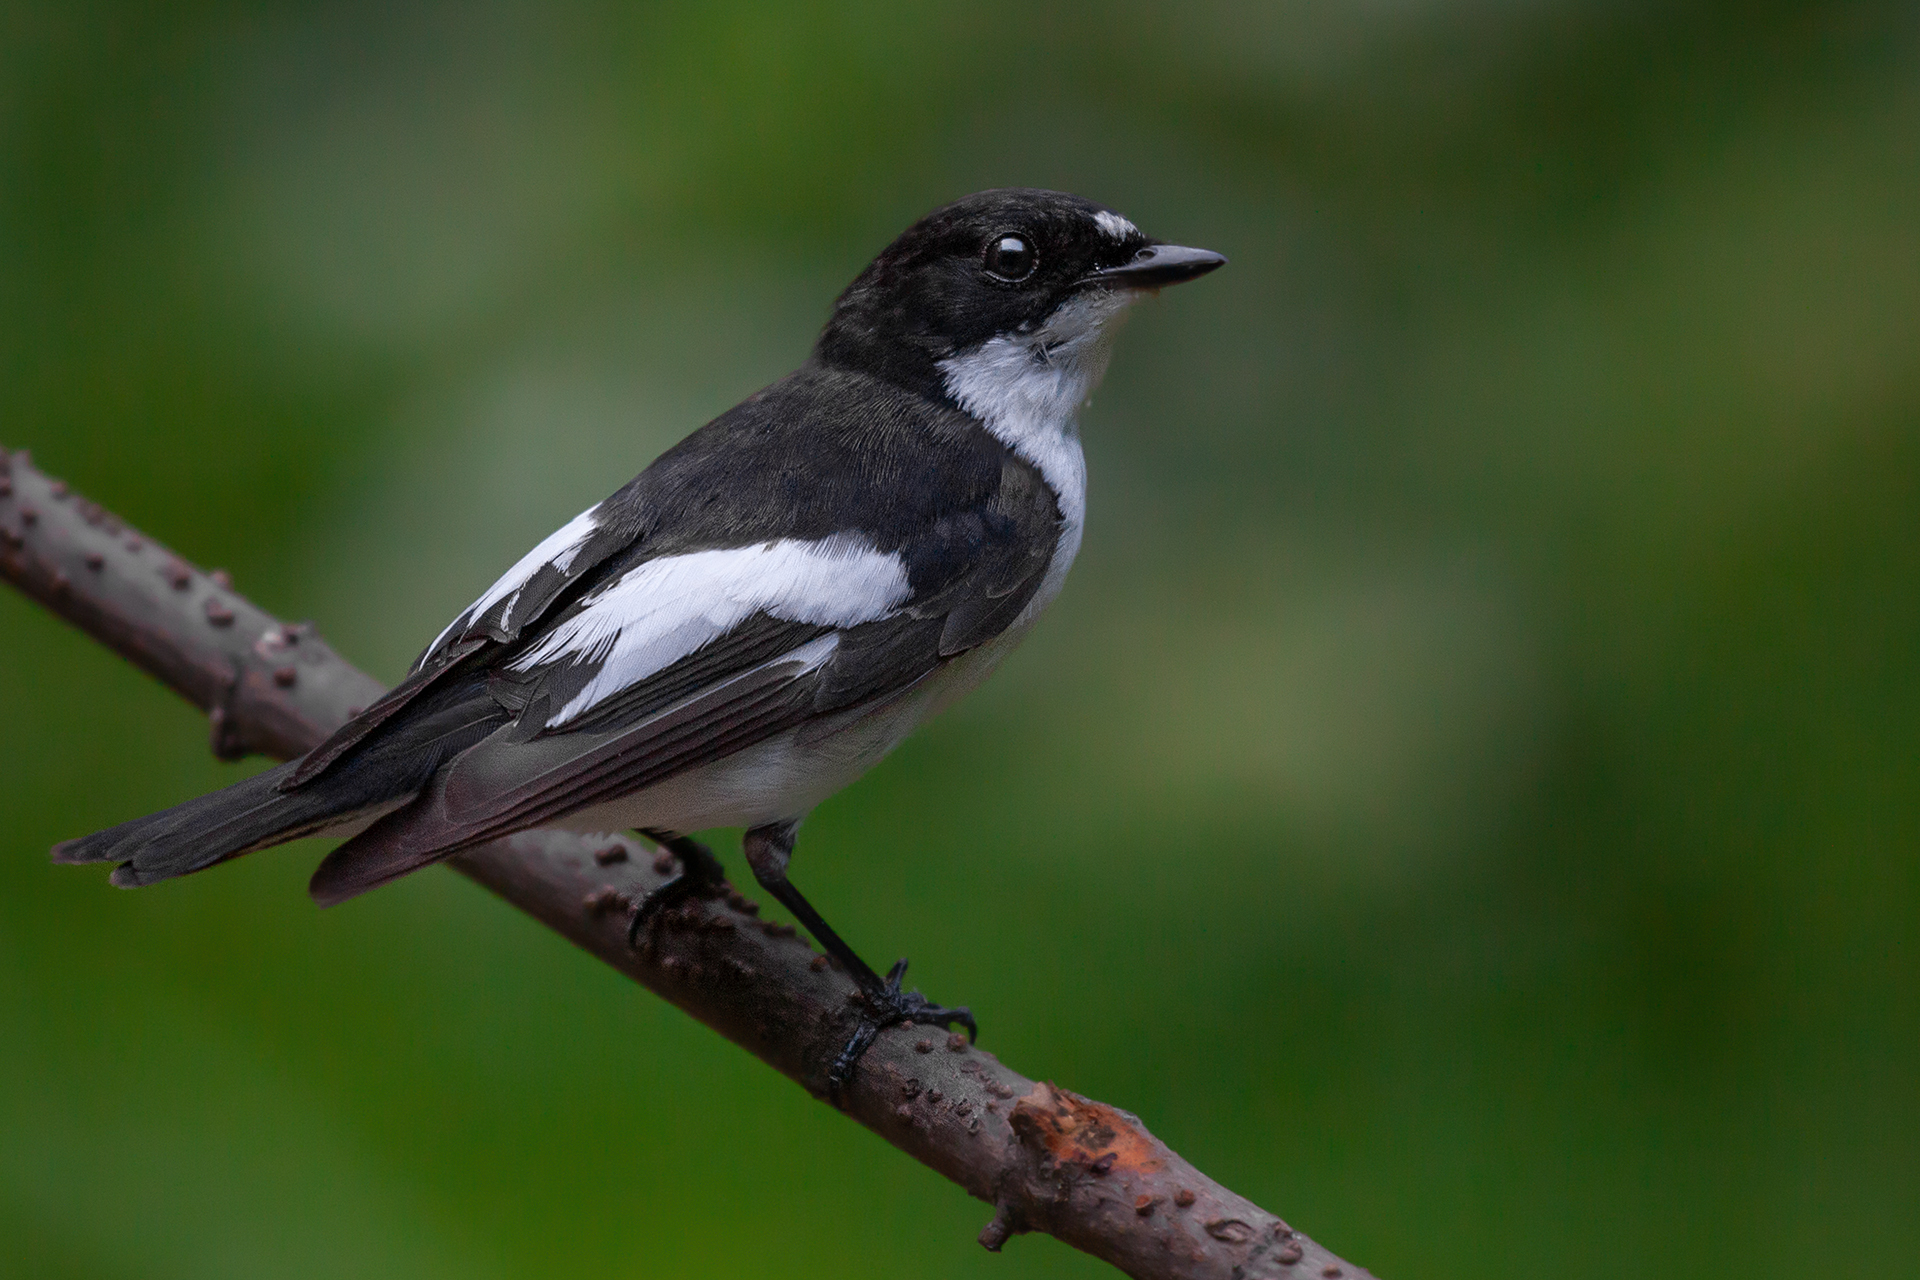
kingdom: Animalia
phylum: Chordata
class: Aves
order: Passeriformes
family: Muscicapidae
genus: Ficedula
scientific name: Ficedula hypoleuca
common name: European pied flycatcher
